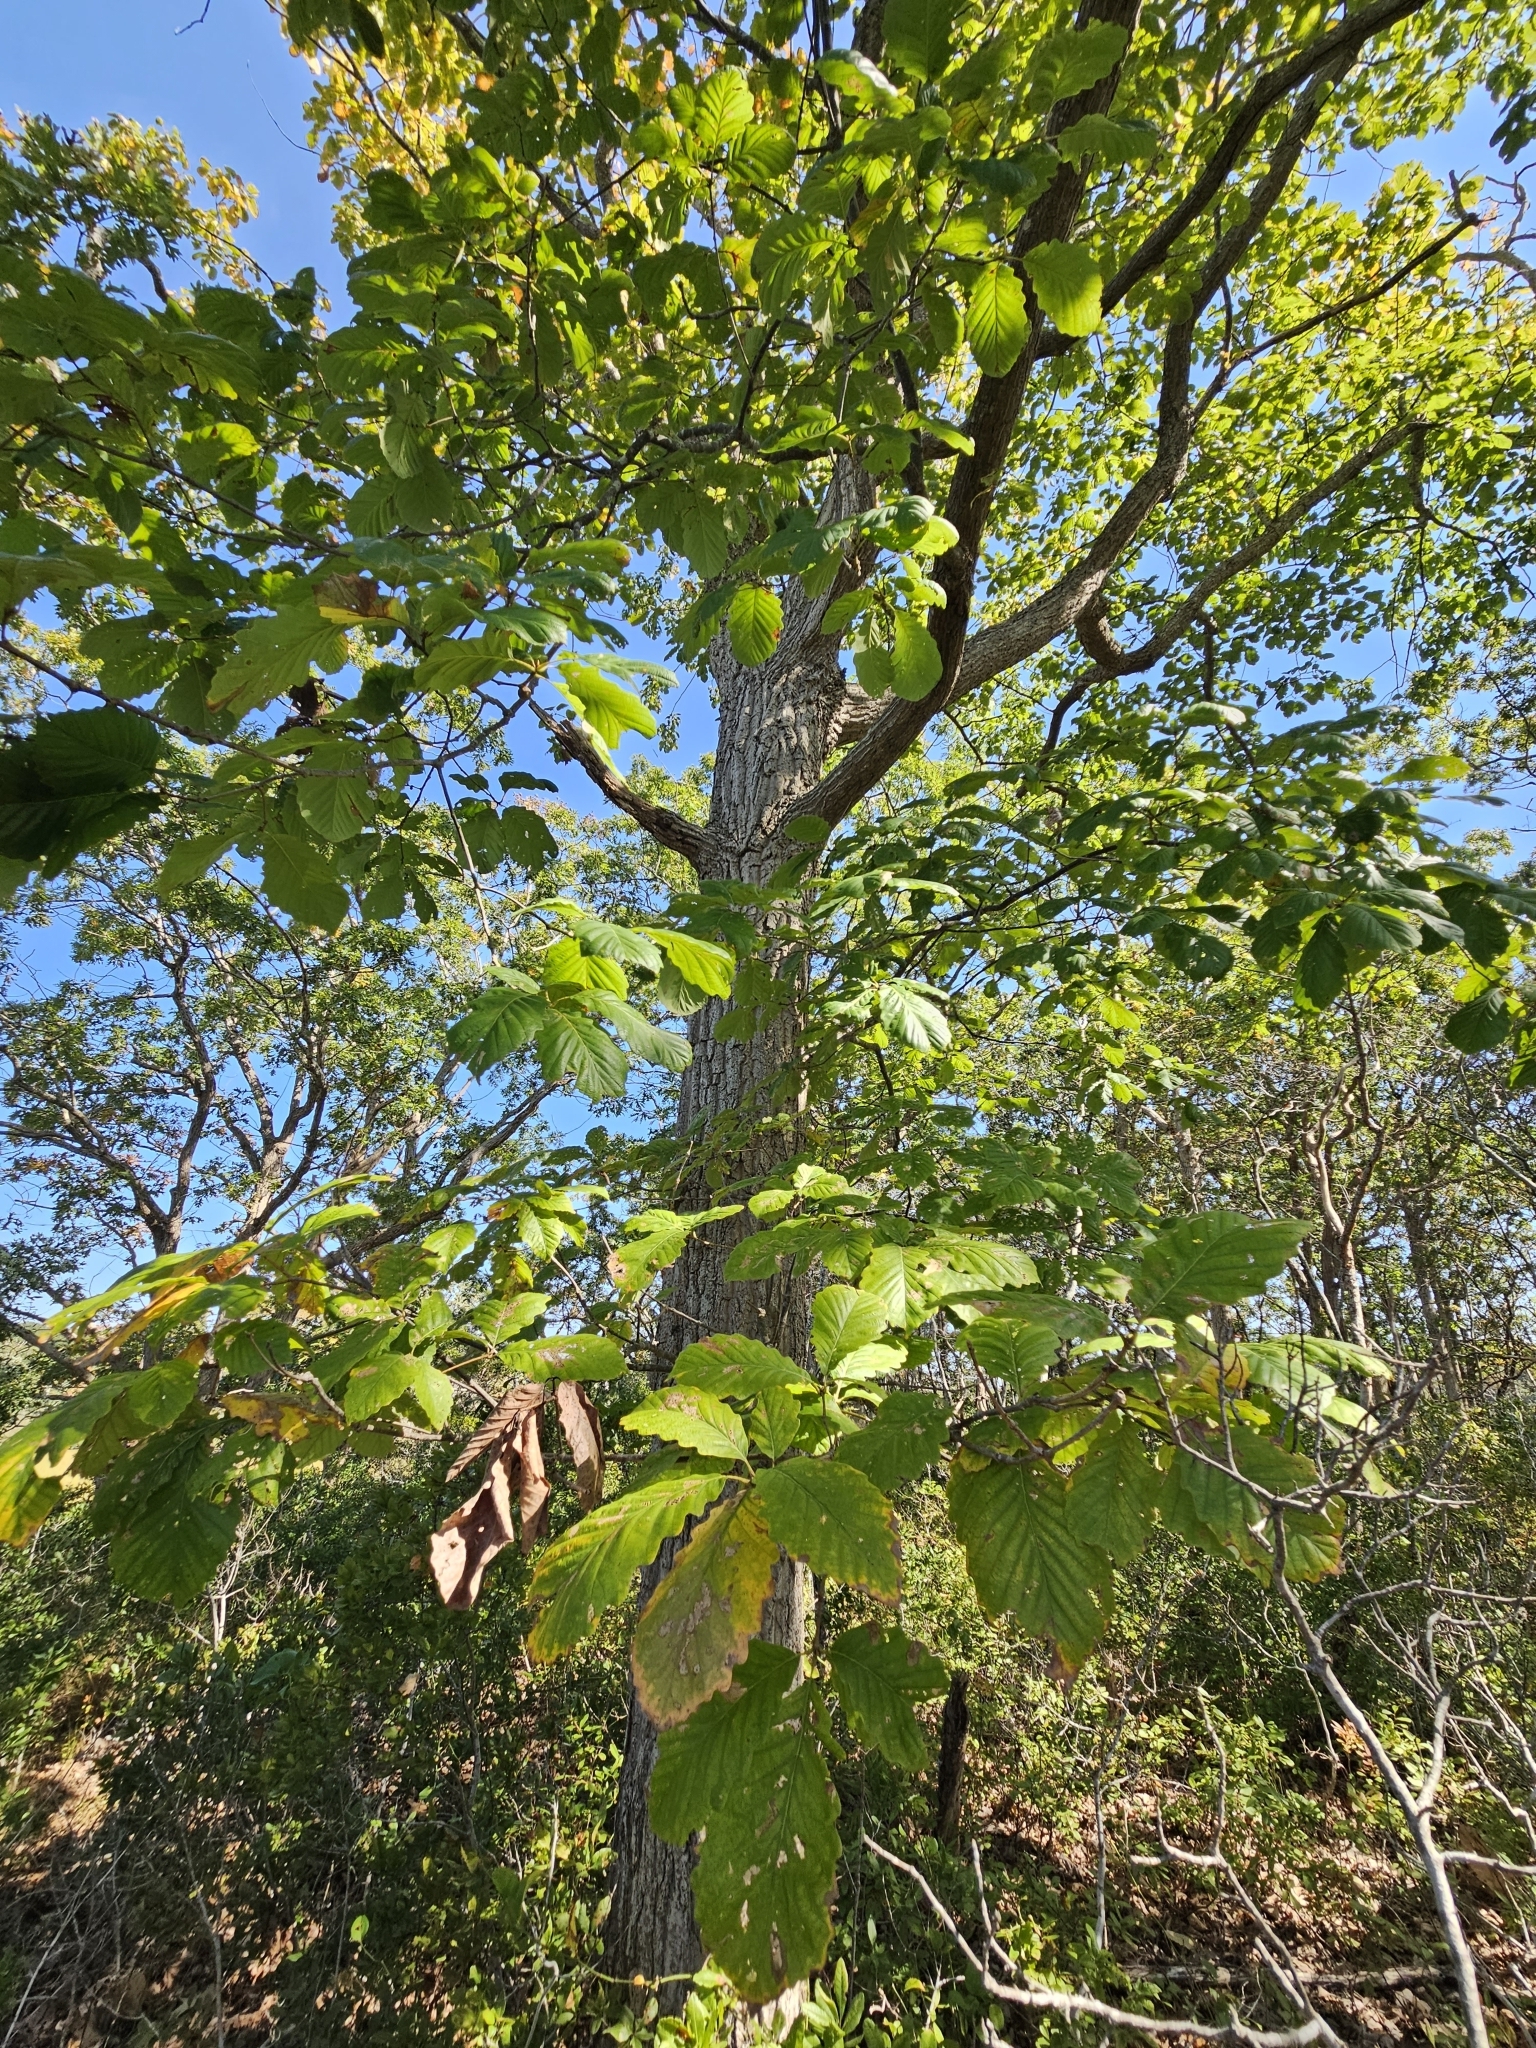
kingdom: Plantae
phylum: Tracheophyta
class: Magnoliopsida
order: Fagales
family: Fagaceae
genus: Quercus
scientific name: Quercus montana
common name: Chestnut oak
